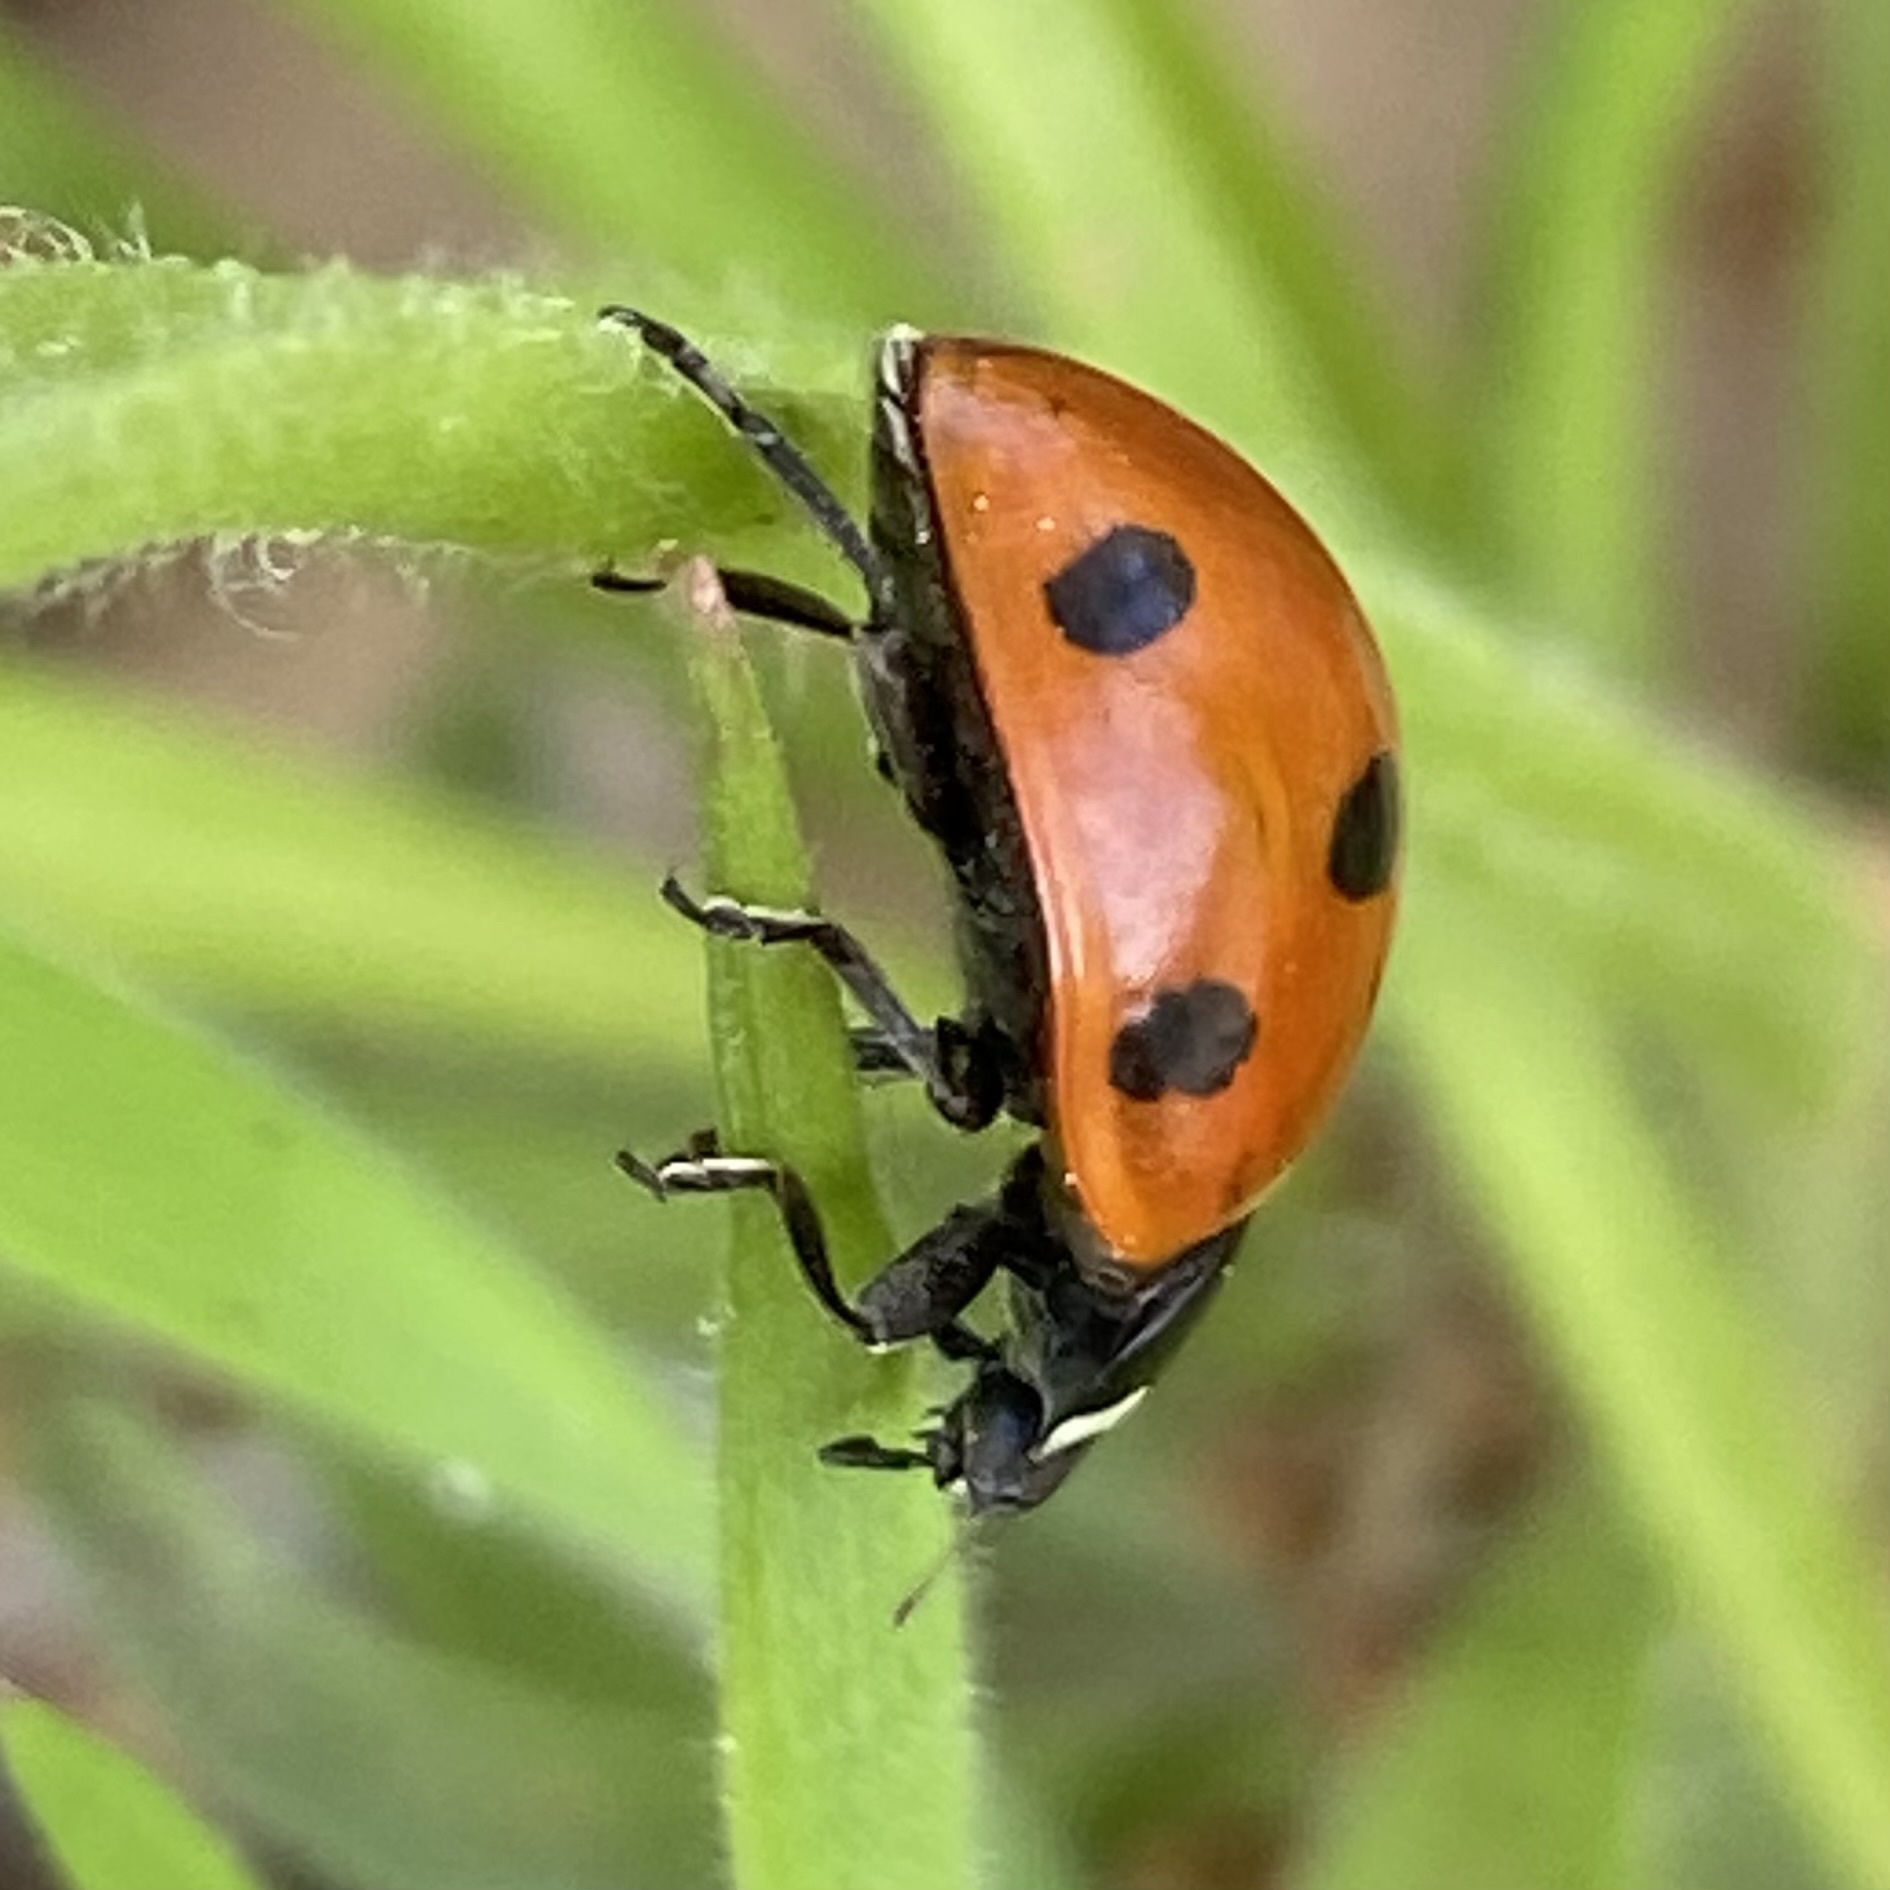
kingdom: Animalia
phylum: Arthropoda
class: Insecta
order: Coleoptera
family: Coccinellidae
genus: Coccinella
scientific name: Coccinella septempunctata
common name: Sevenspotted lady beetle
